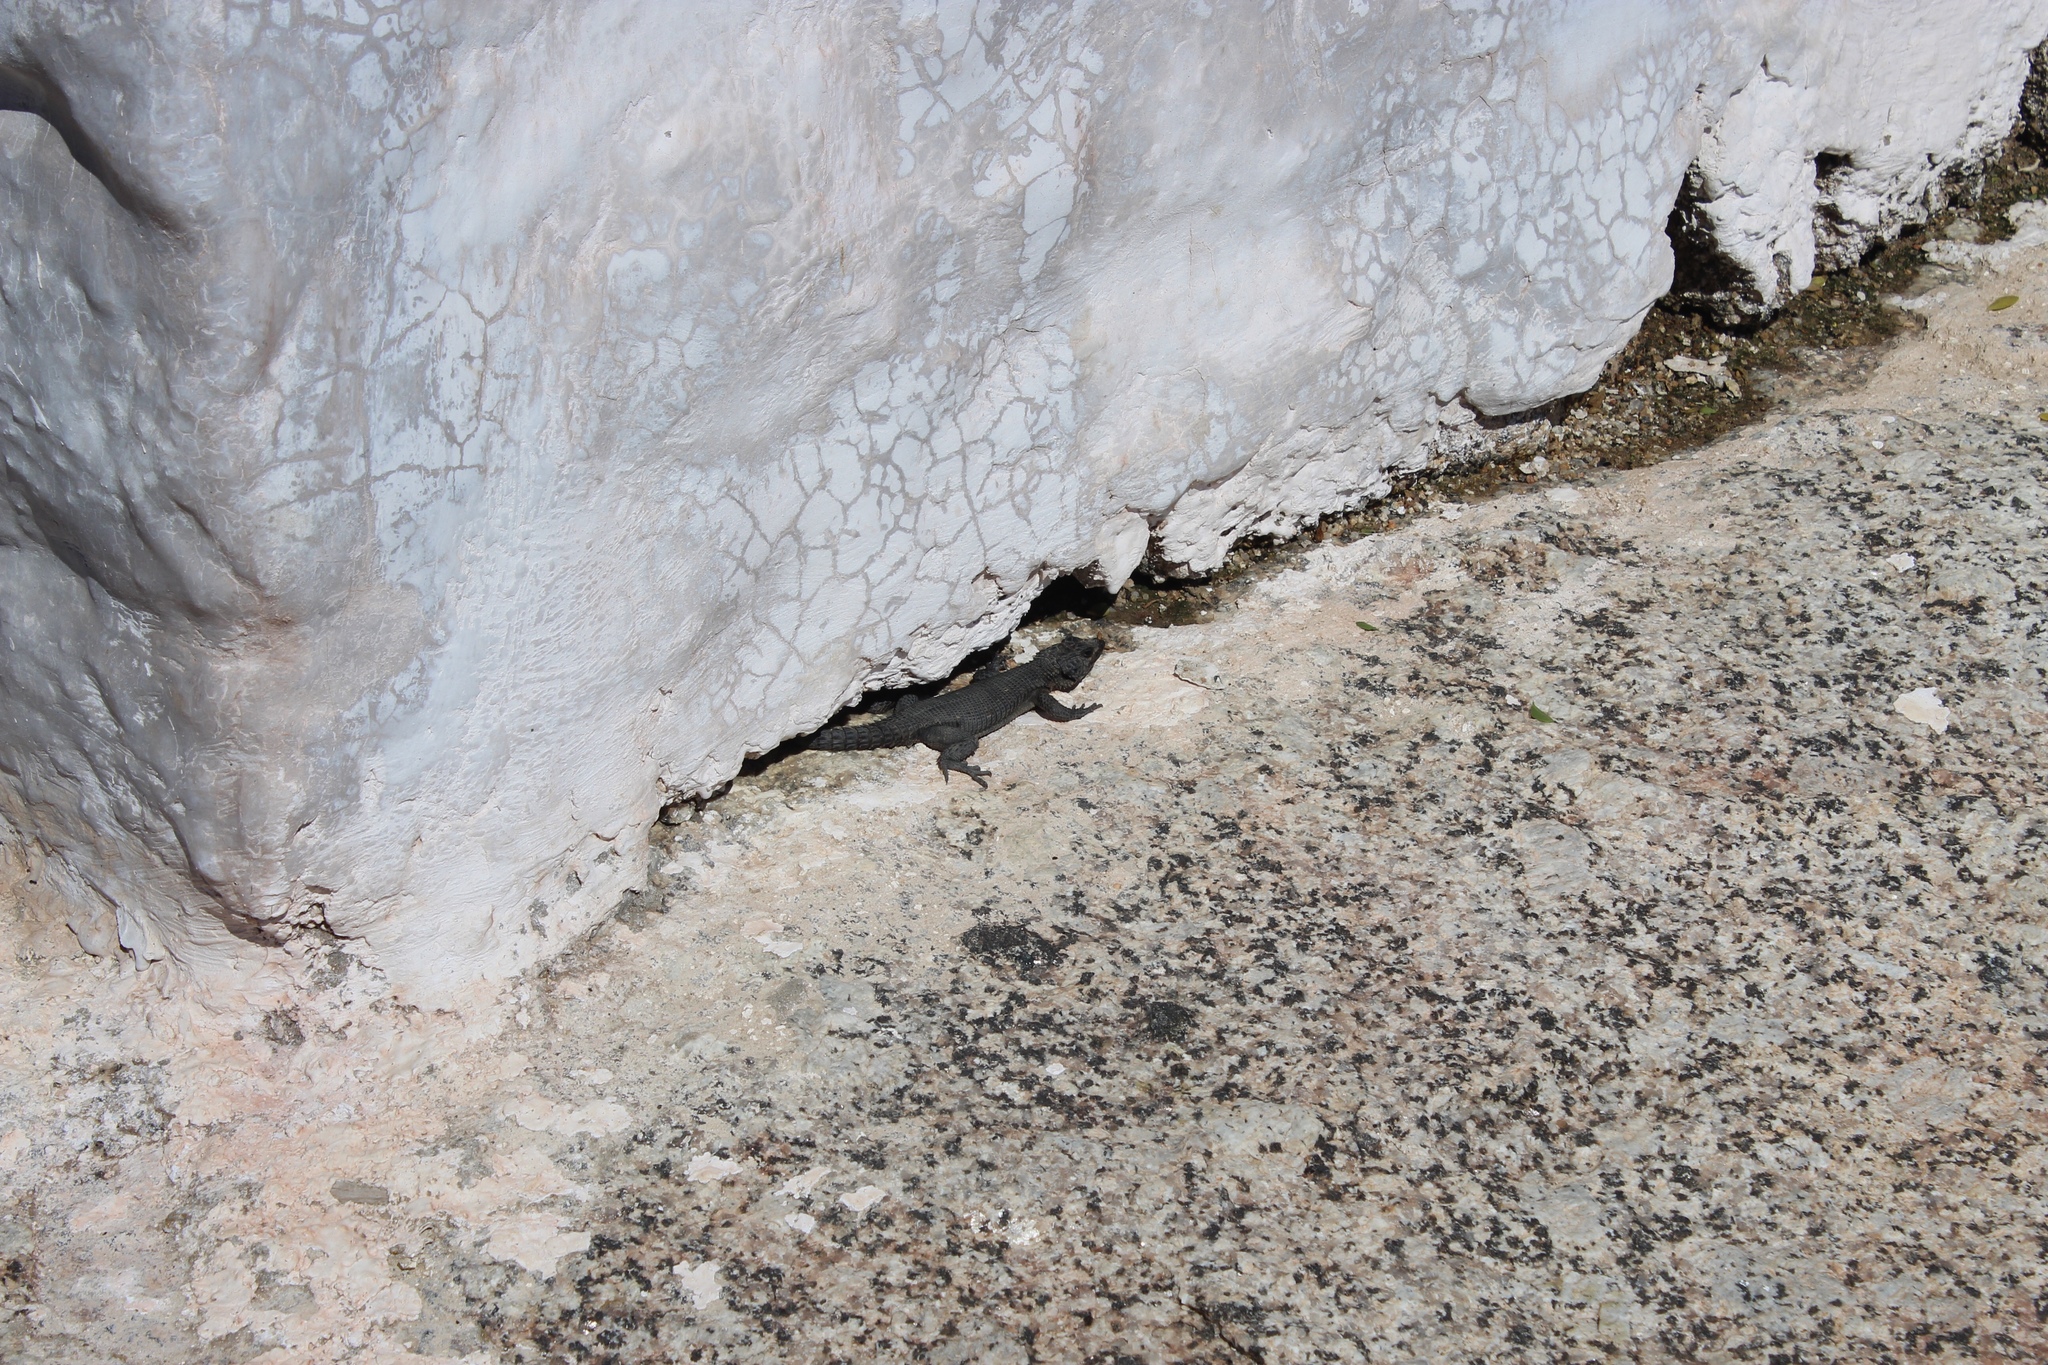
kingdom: Animalia
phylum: Chordata
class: Squamata
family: Cordylidae
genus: Karusasaurus
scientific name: Karusasaurus polyzonus
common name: Karoo girdled lizard
